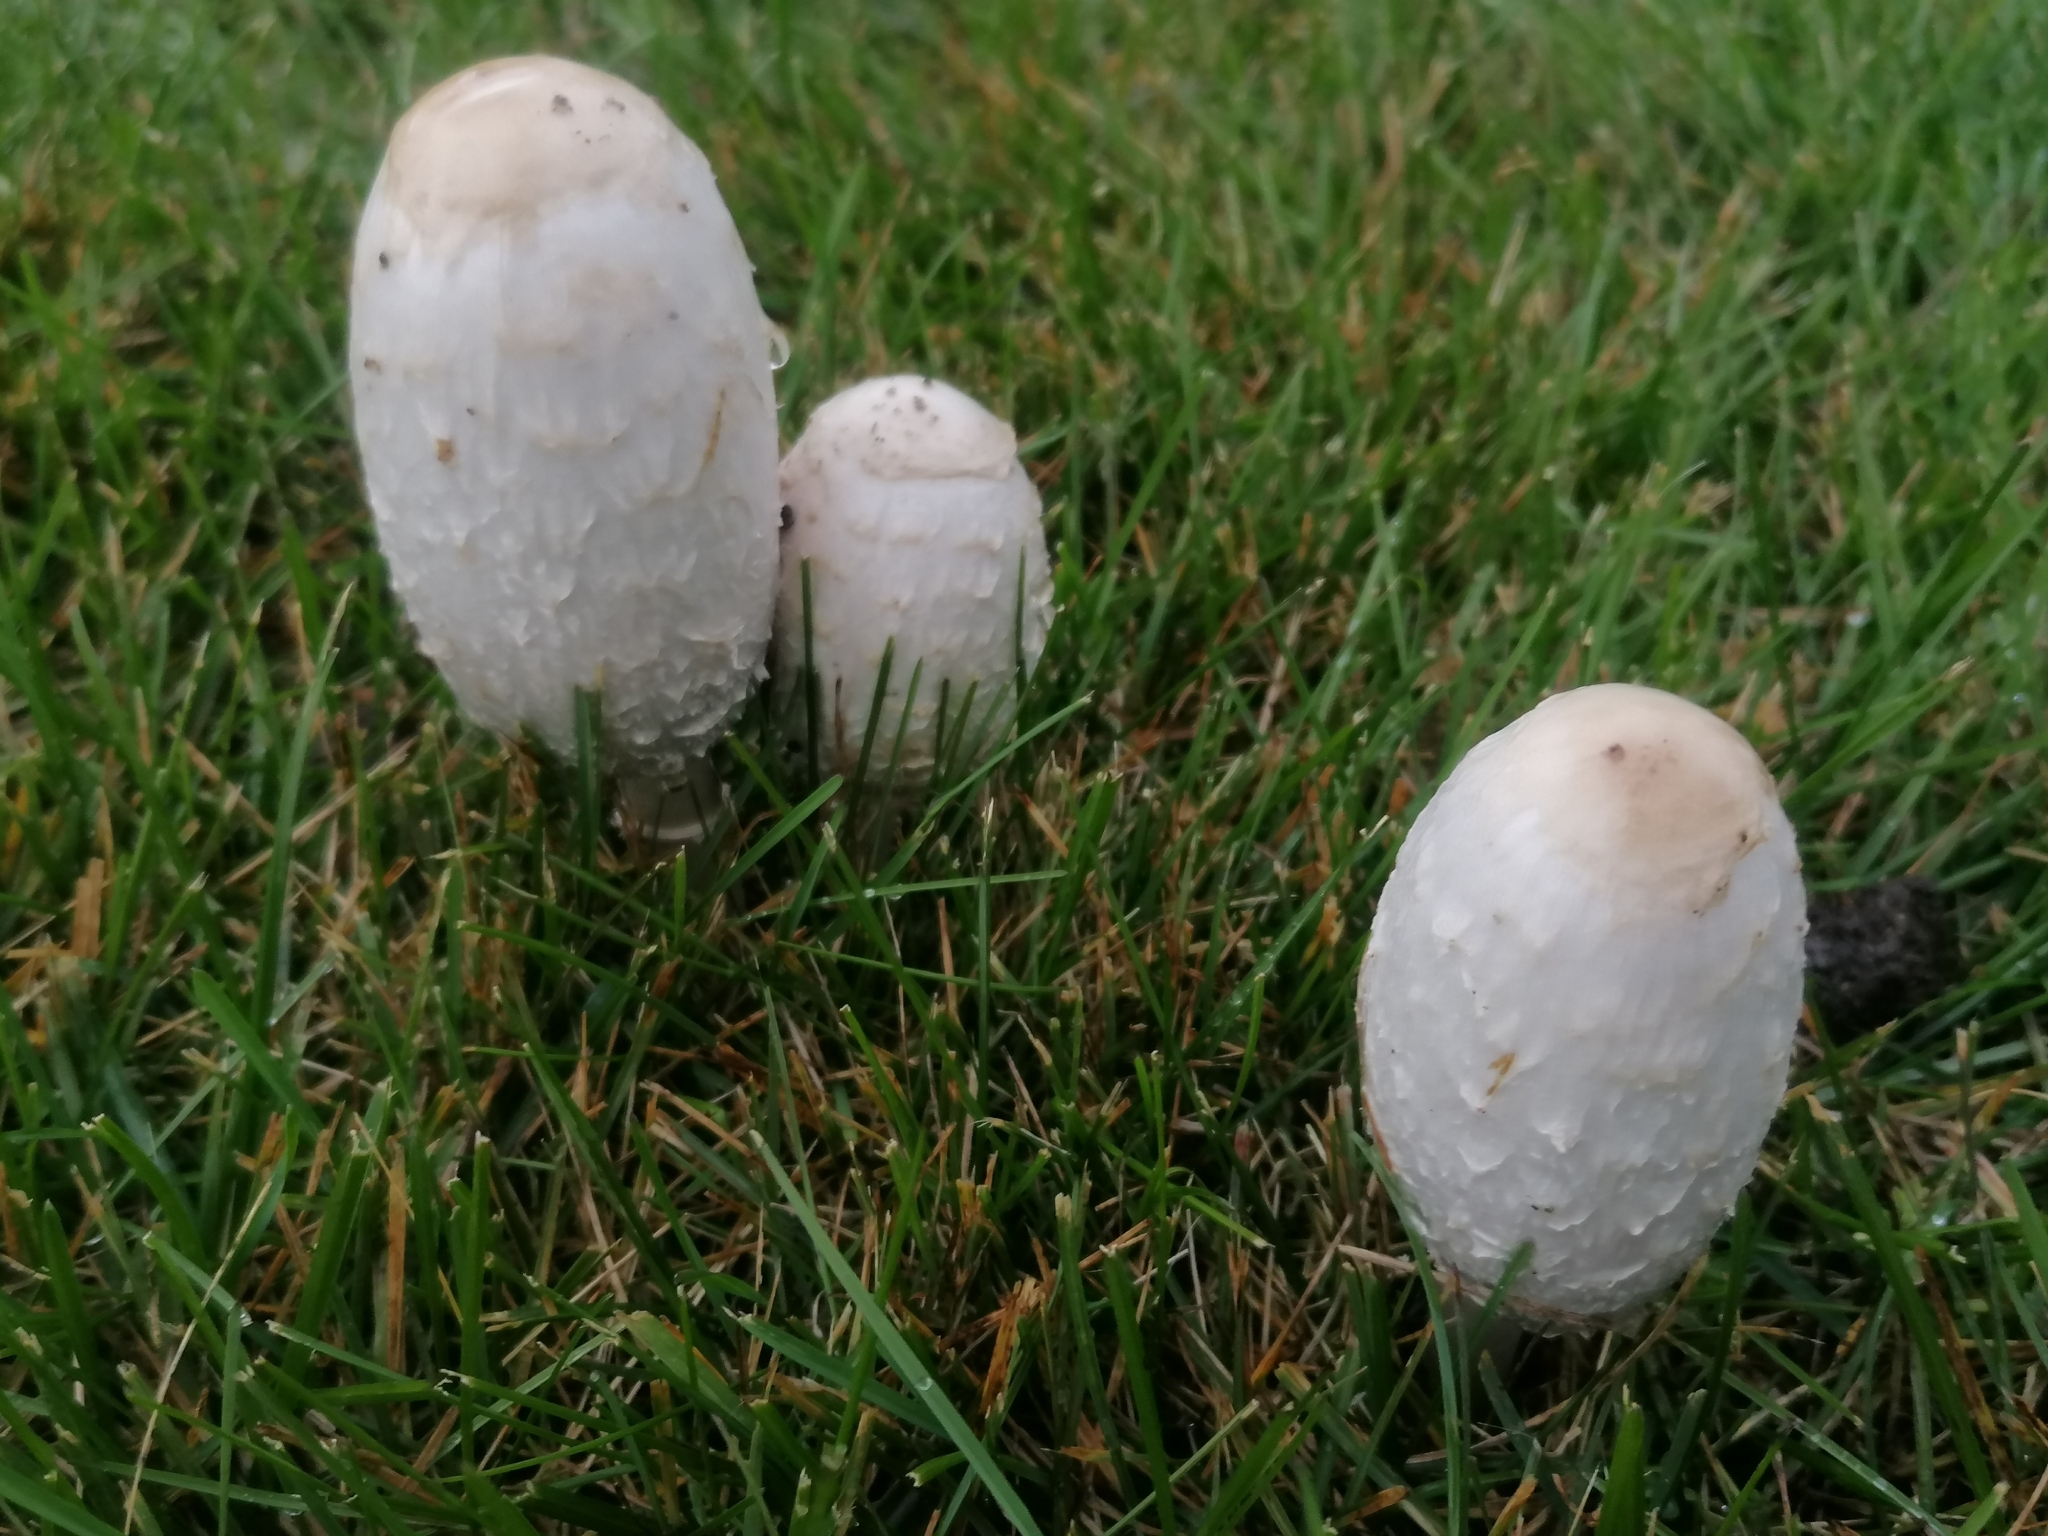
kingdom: Fungi
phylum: Basidiomycota
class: Agaricomycetes
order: Agaricales
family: Agaricaceae
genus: Coprinus
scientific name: Coprinus comatus
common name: Lawyer's wig
